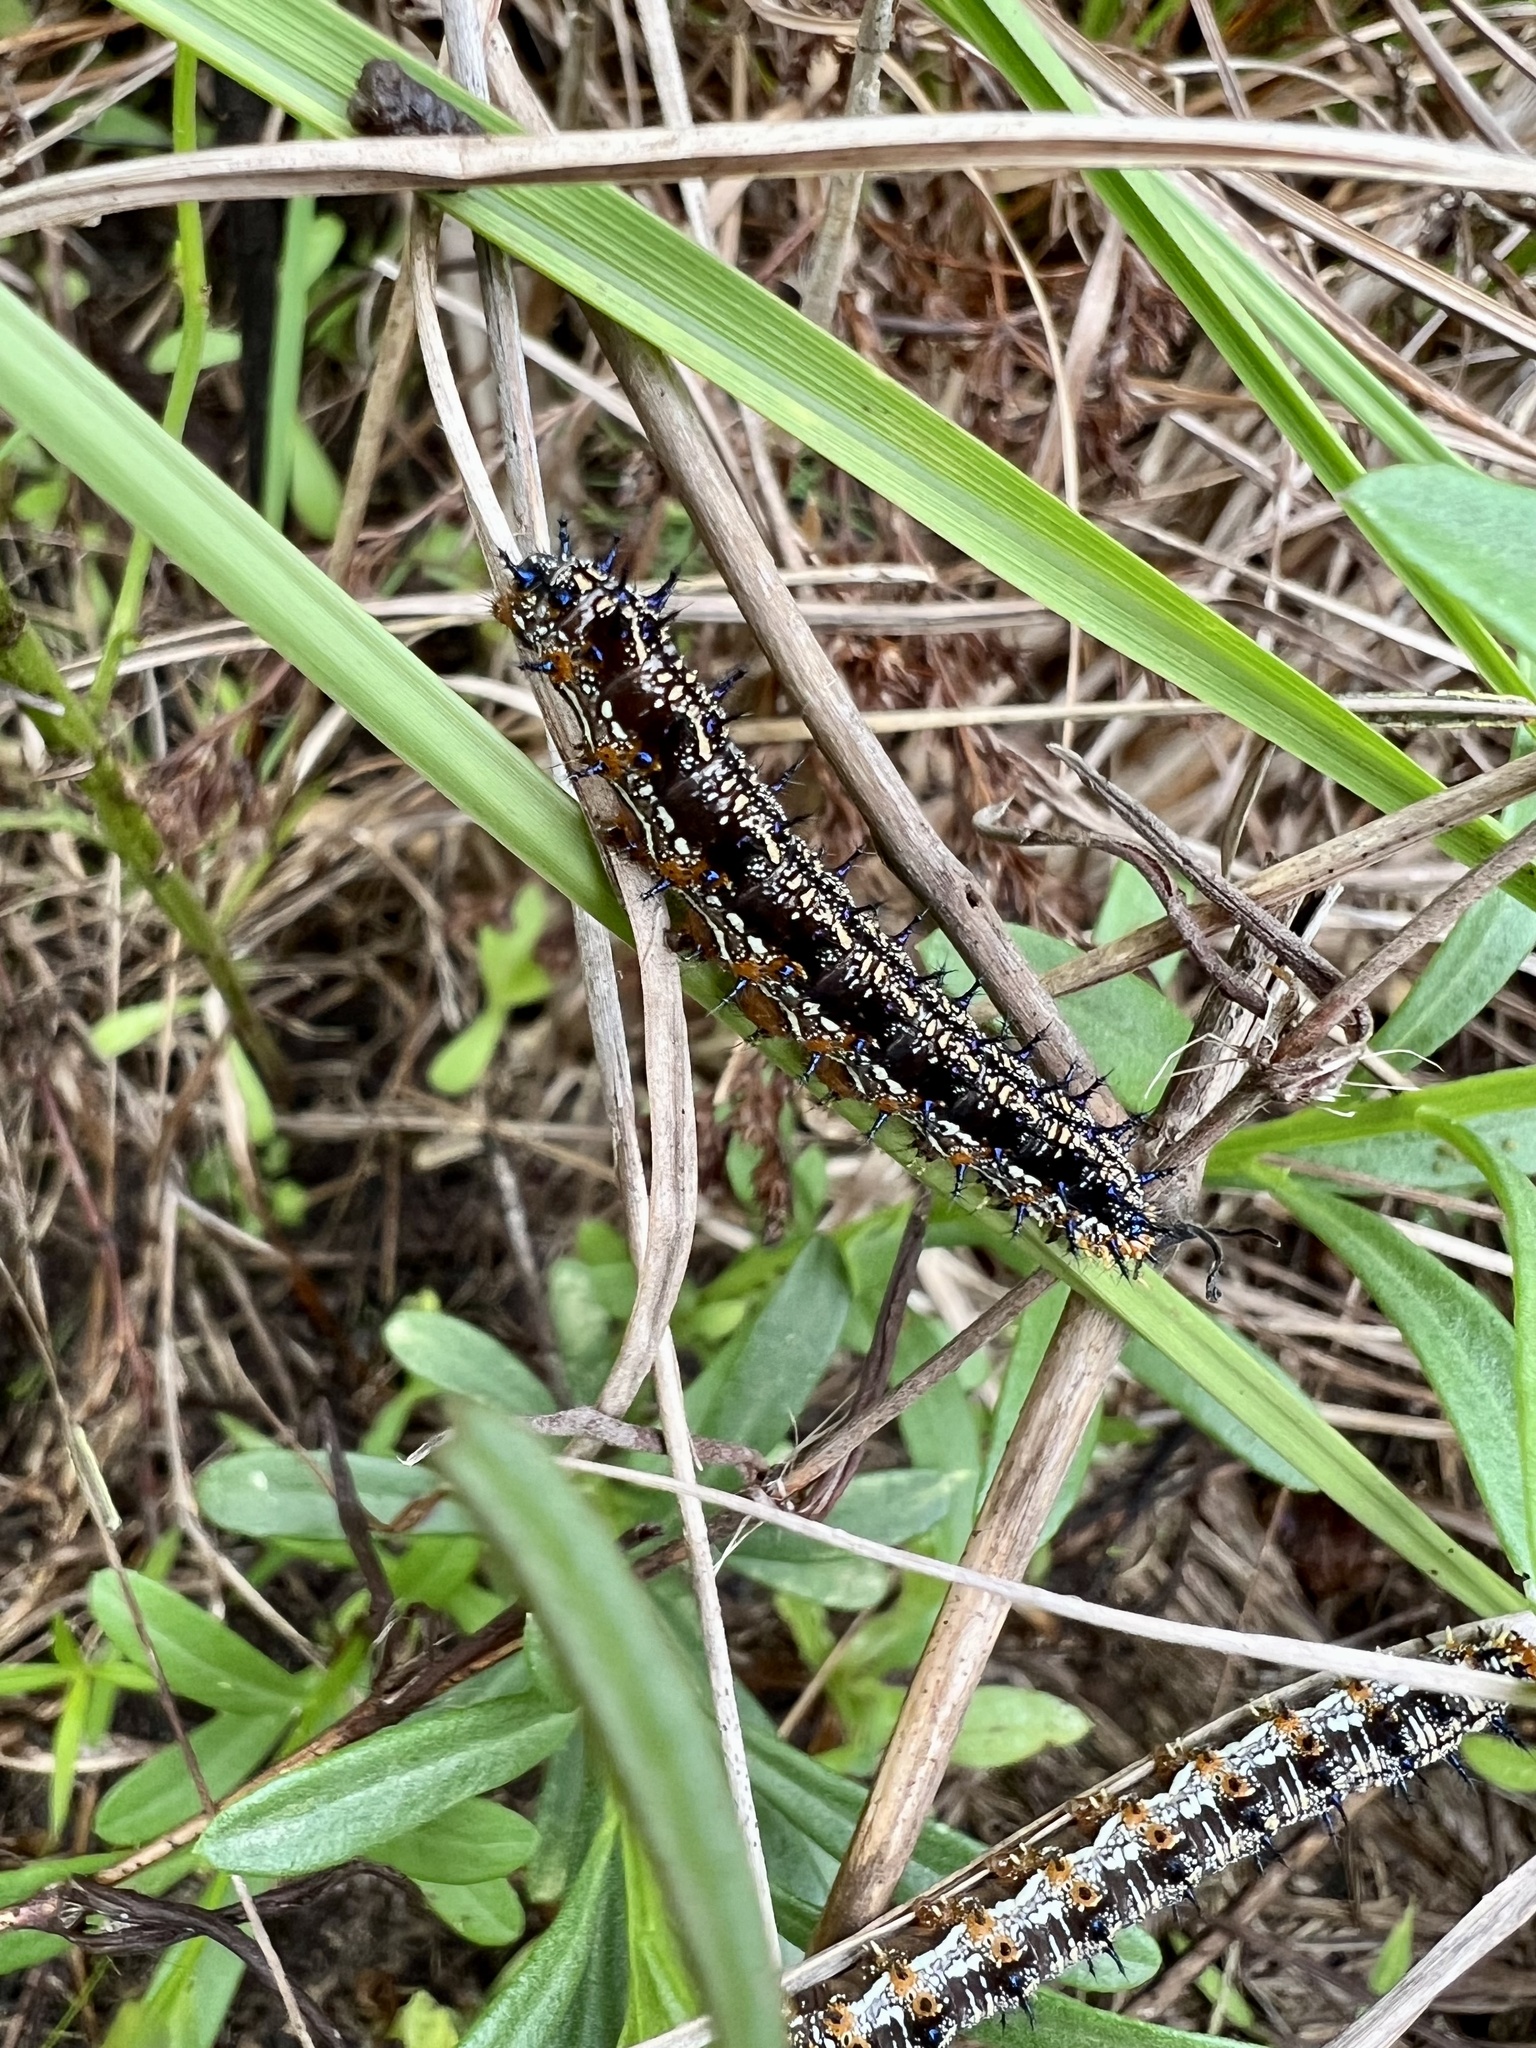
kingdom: Animalia
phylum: Arthropoda
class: Insecta
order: Lepidoptera
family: Nymphalidae
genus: Junonia
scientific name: Junonia coenia
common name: Common buckeye
